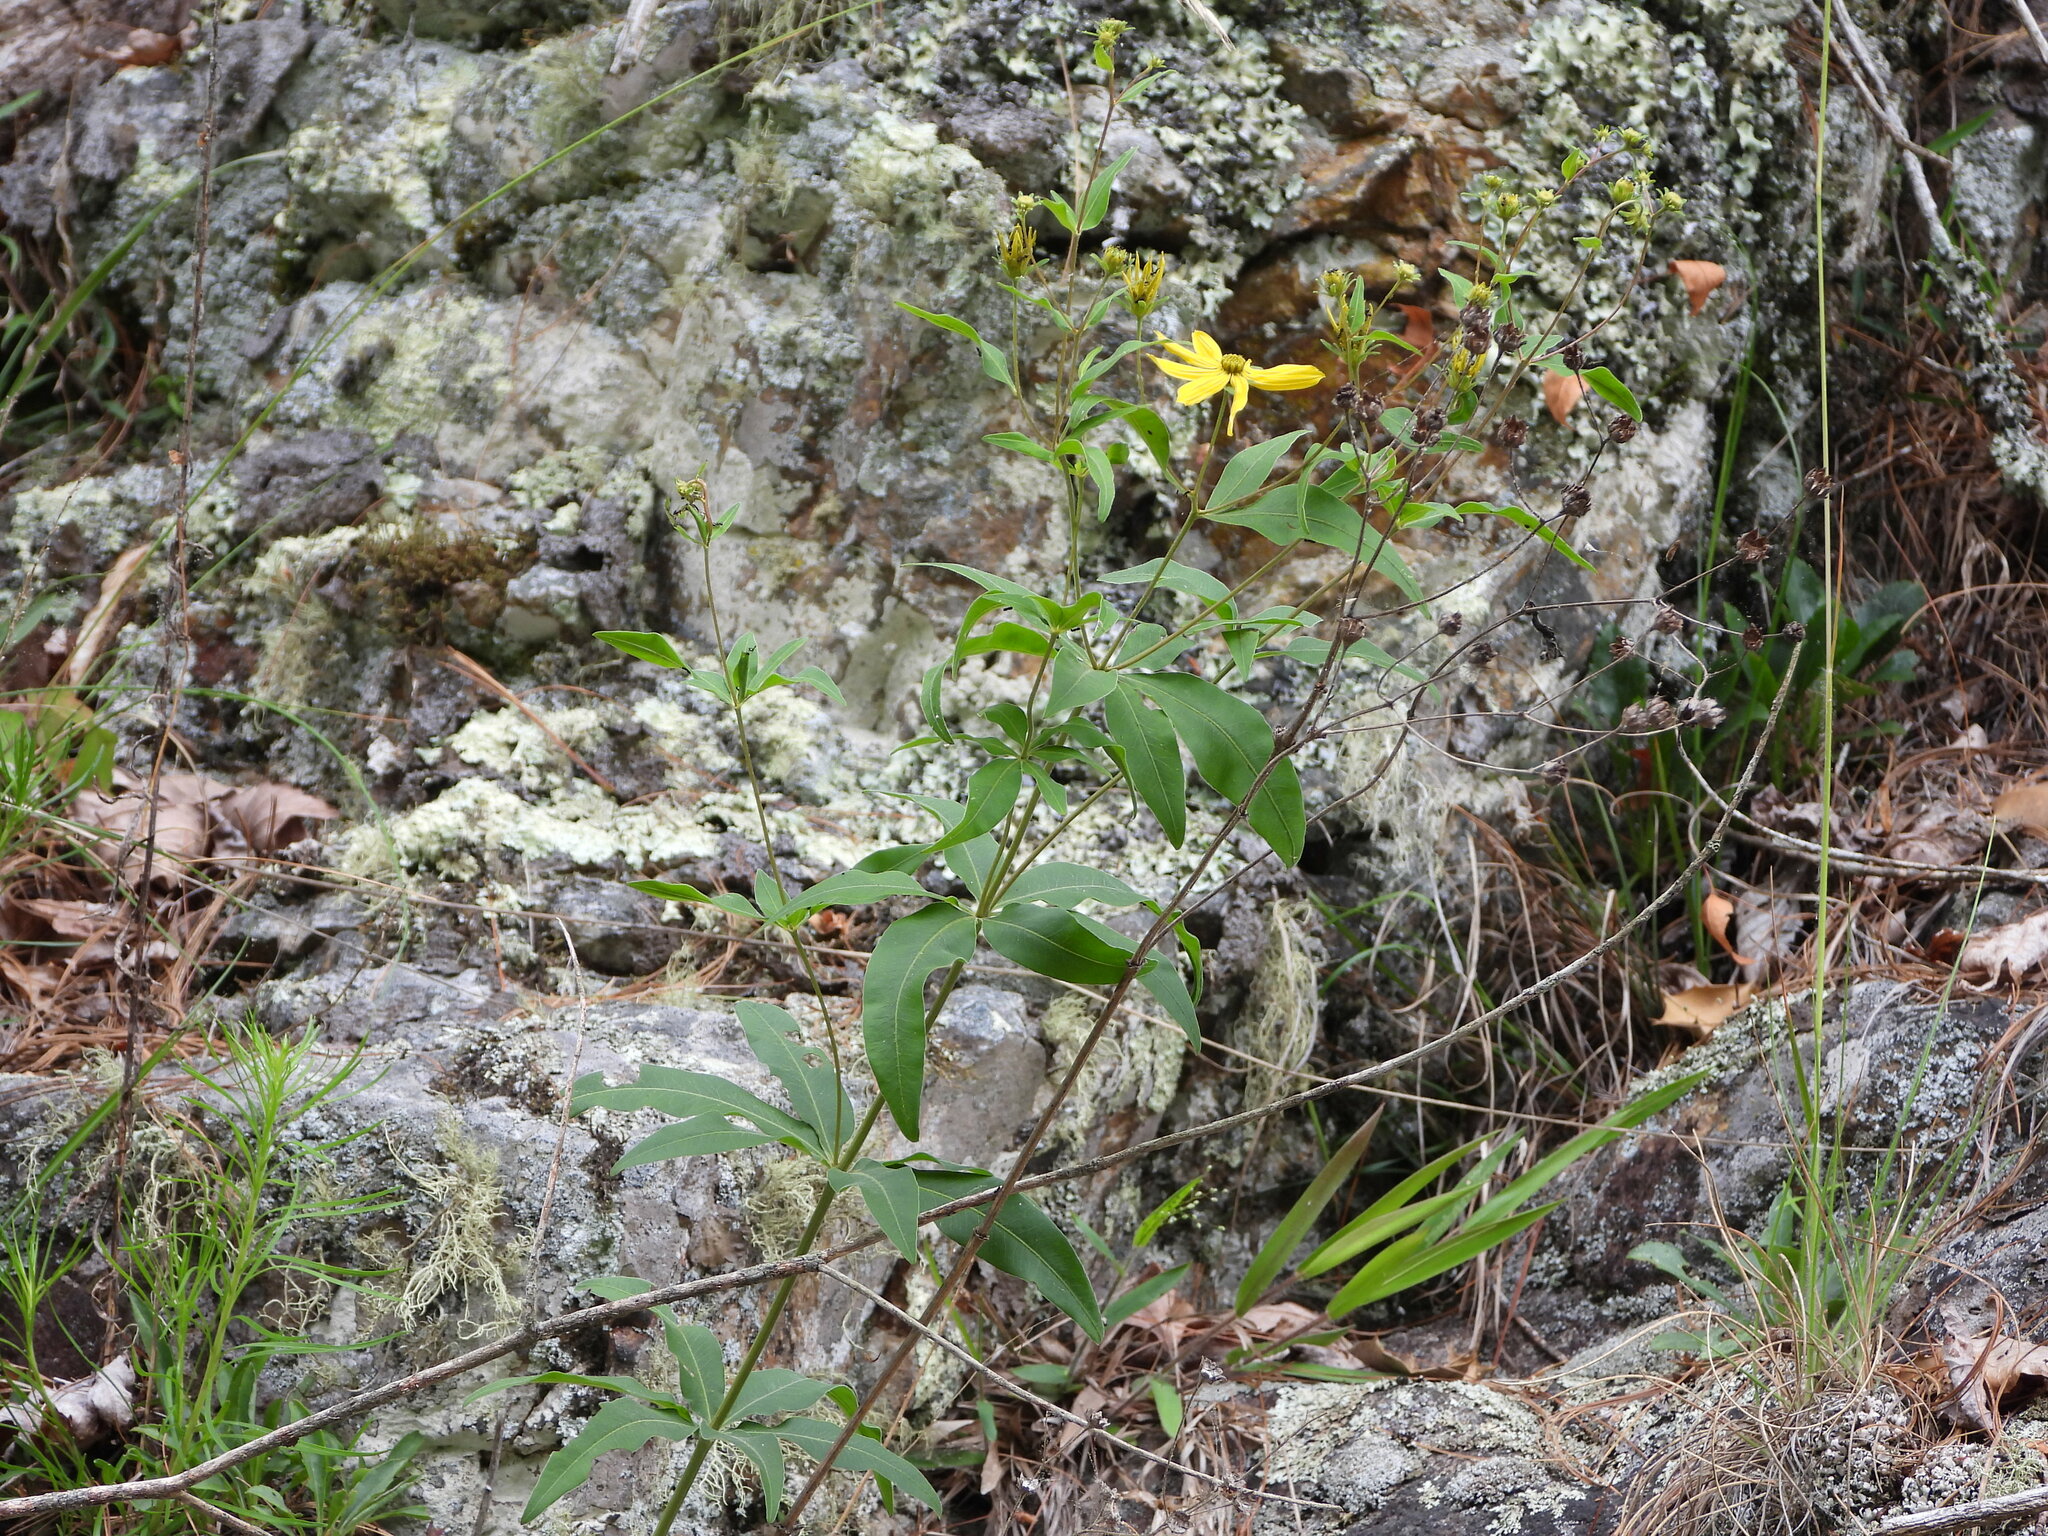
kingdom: Plantae
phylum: Tracheophyta
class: Magnoliopsida
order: Asterales
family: Asteraceae
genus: Coreopsis
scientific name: Coreopsis major
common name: Forest tickseed
